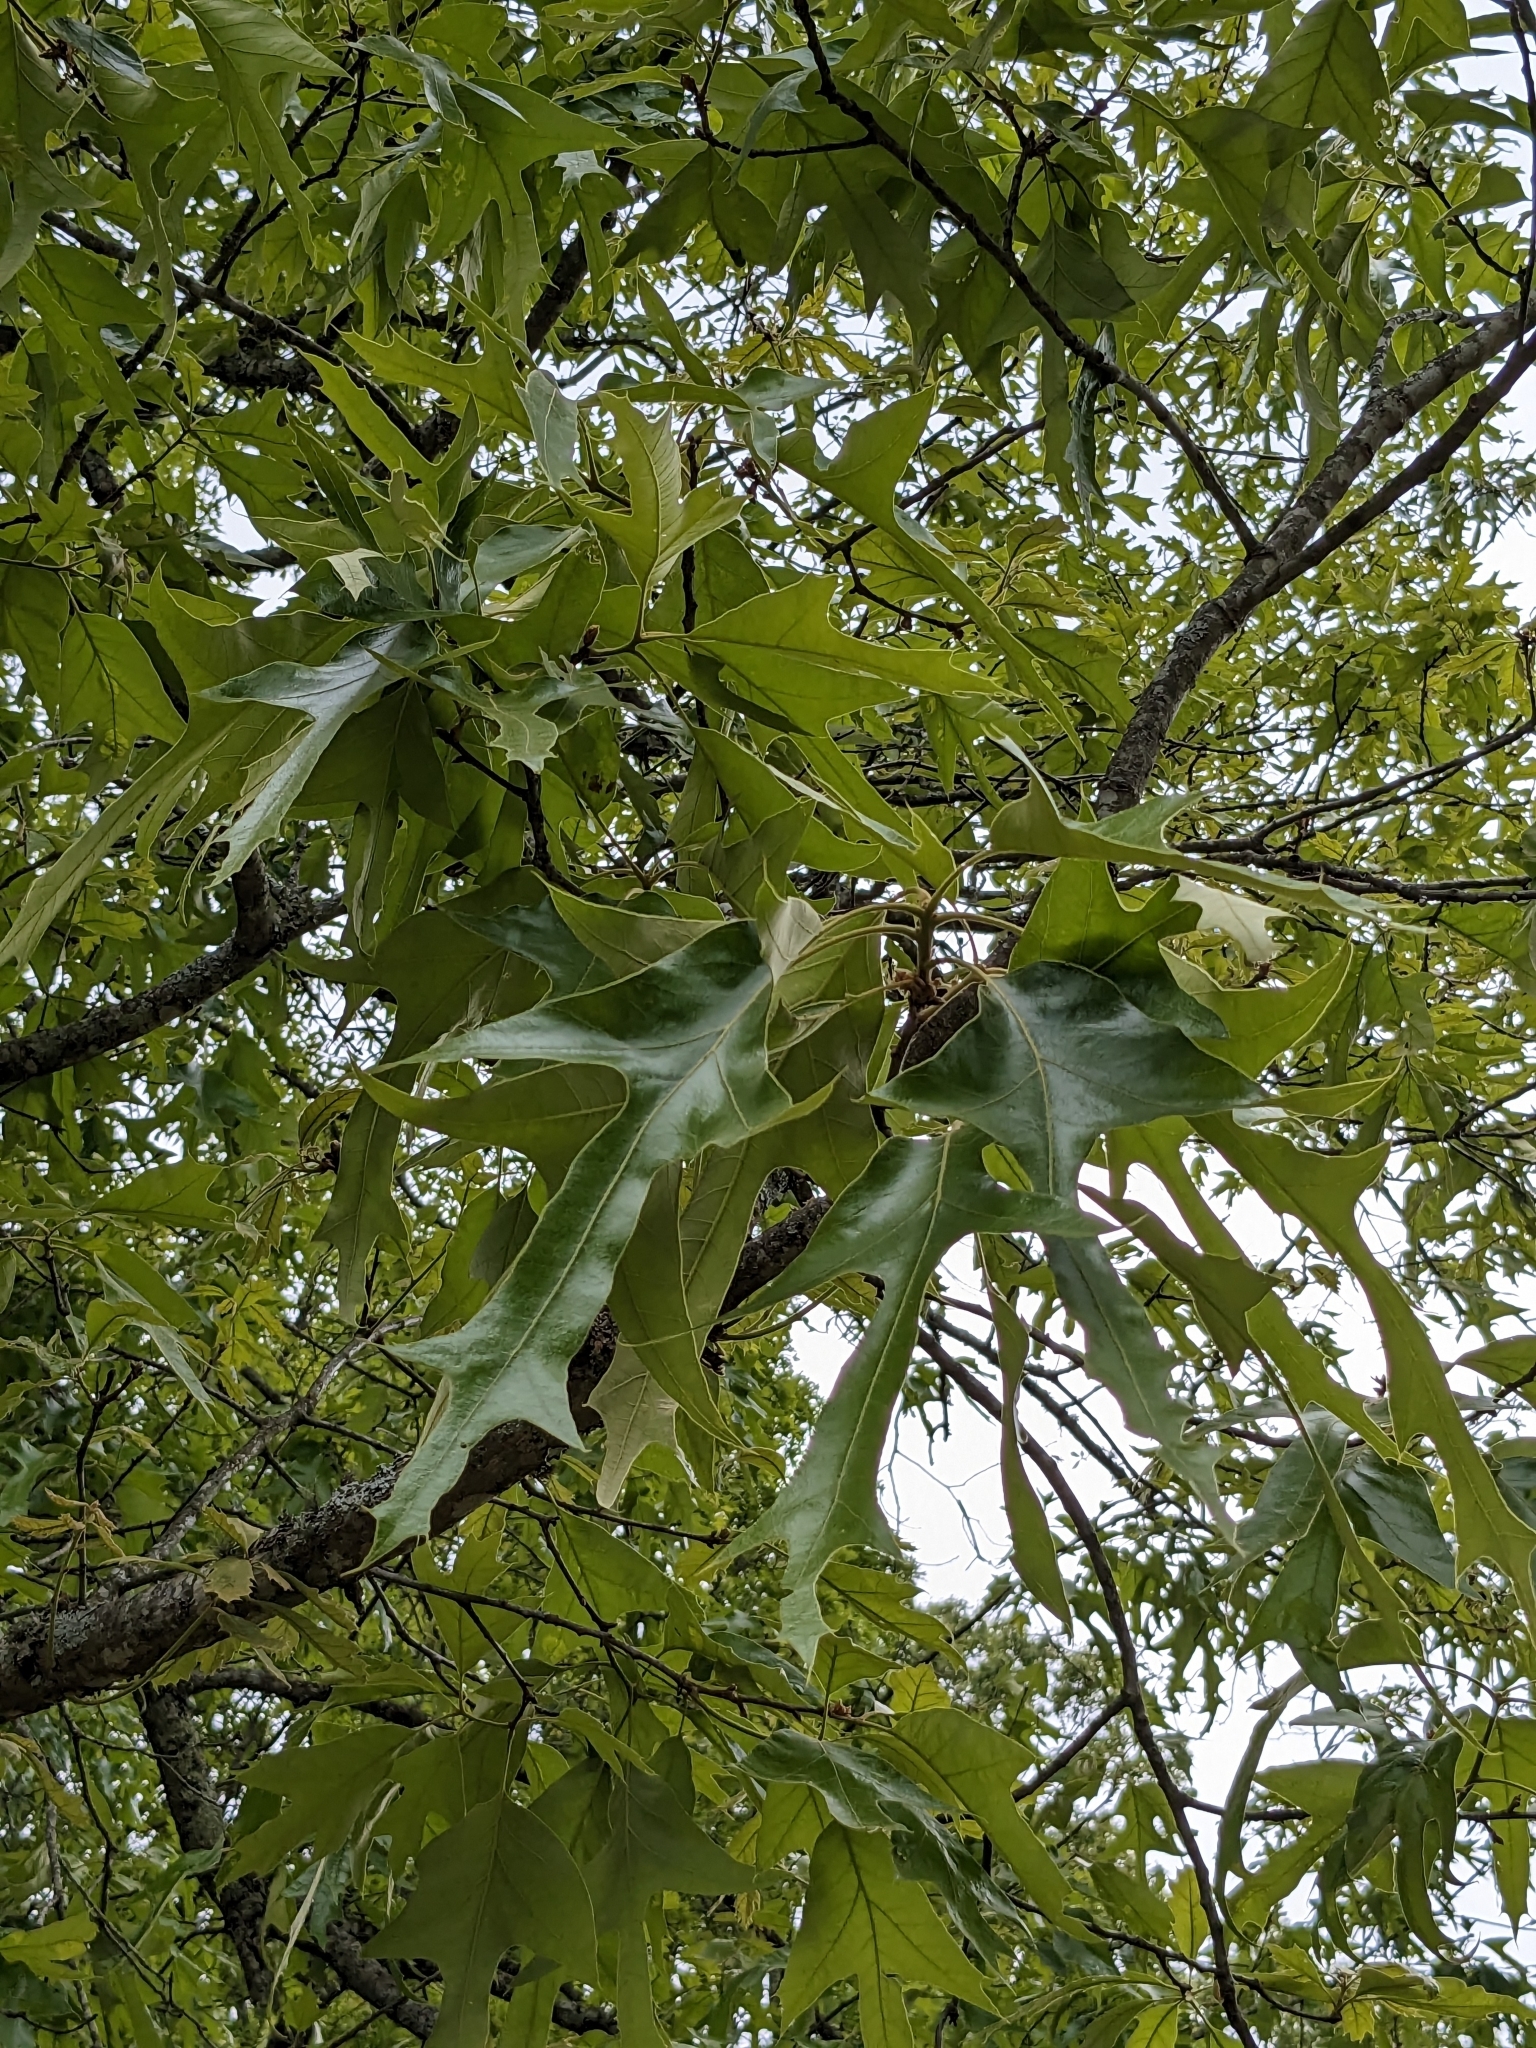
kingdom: Plantae
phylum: Tracheophyta
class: Magnoliopsida
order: Fagales
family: Fagaceae
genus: Quercus
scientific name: Quercus falcata
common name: Southern red oak
